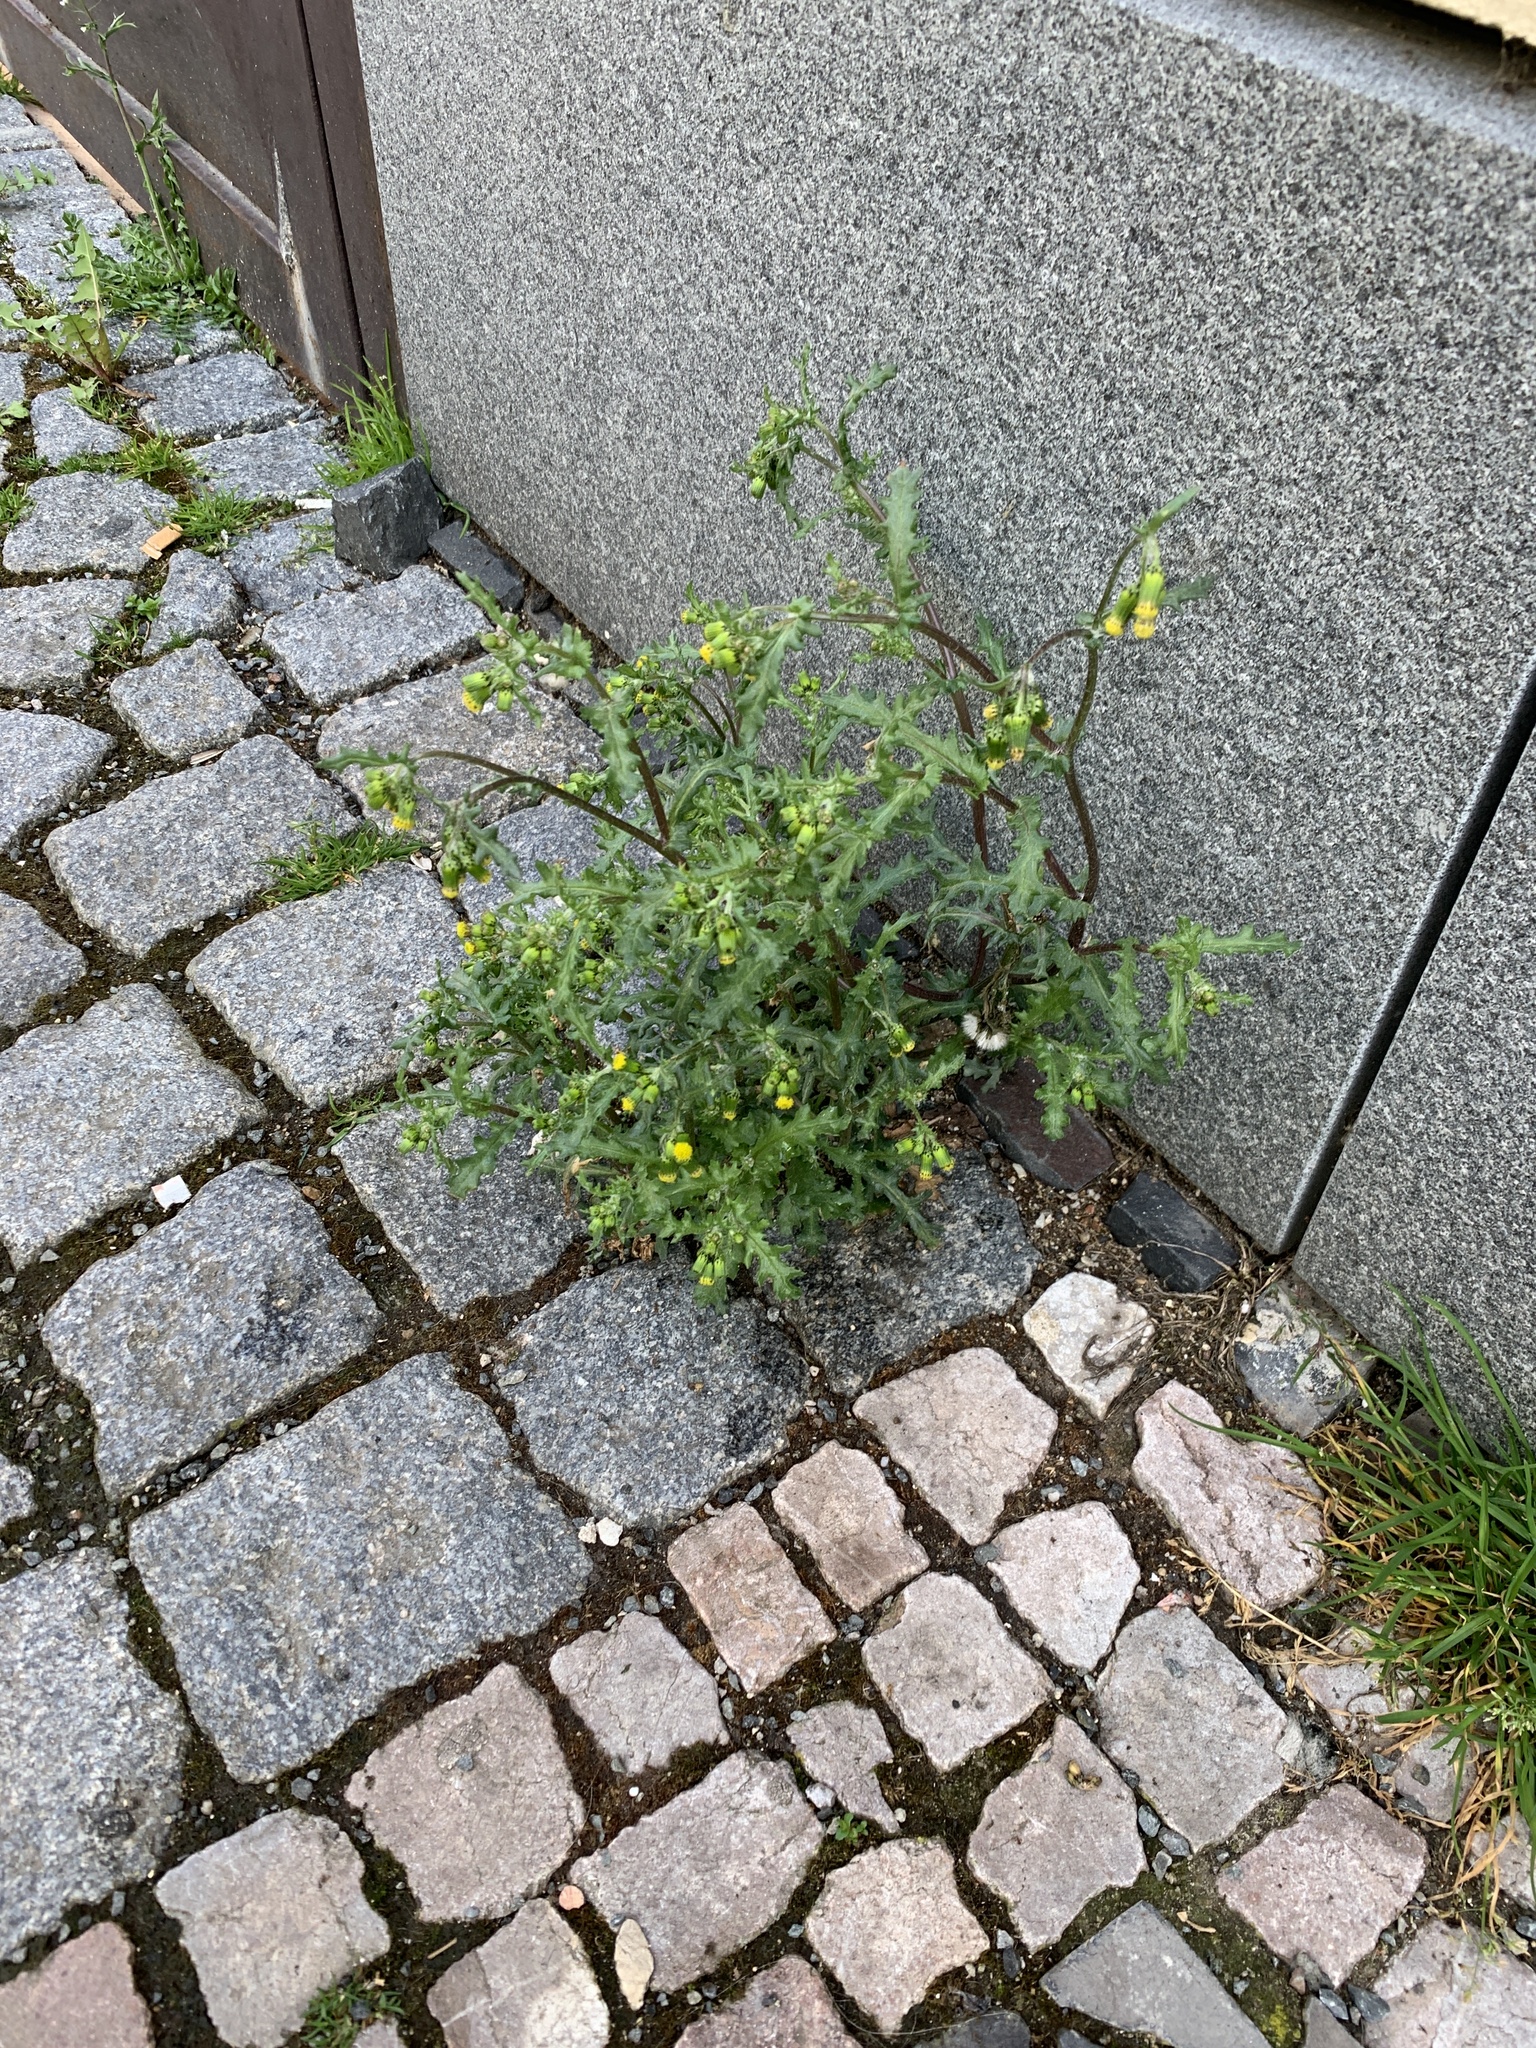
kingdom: Plantae
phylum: Tracheophyta
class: Magnoliopsida
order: Asterales
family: Asteraceae
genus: Senecio
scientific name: Senecio vulgaris
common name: Old-man-in-the-spring
